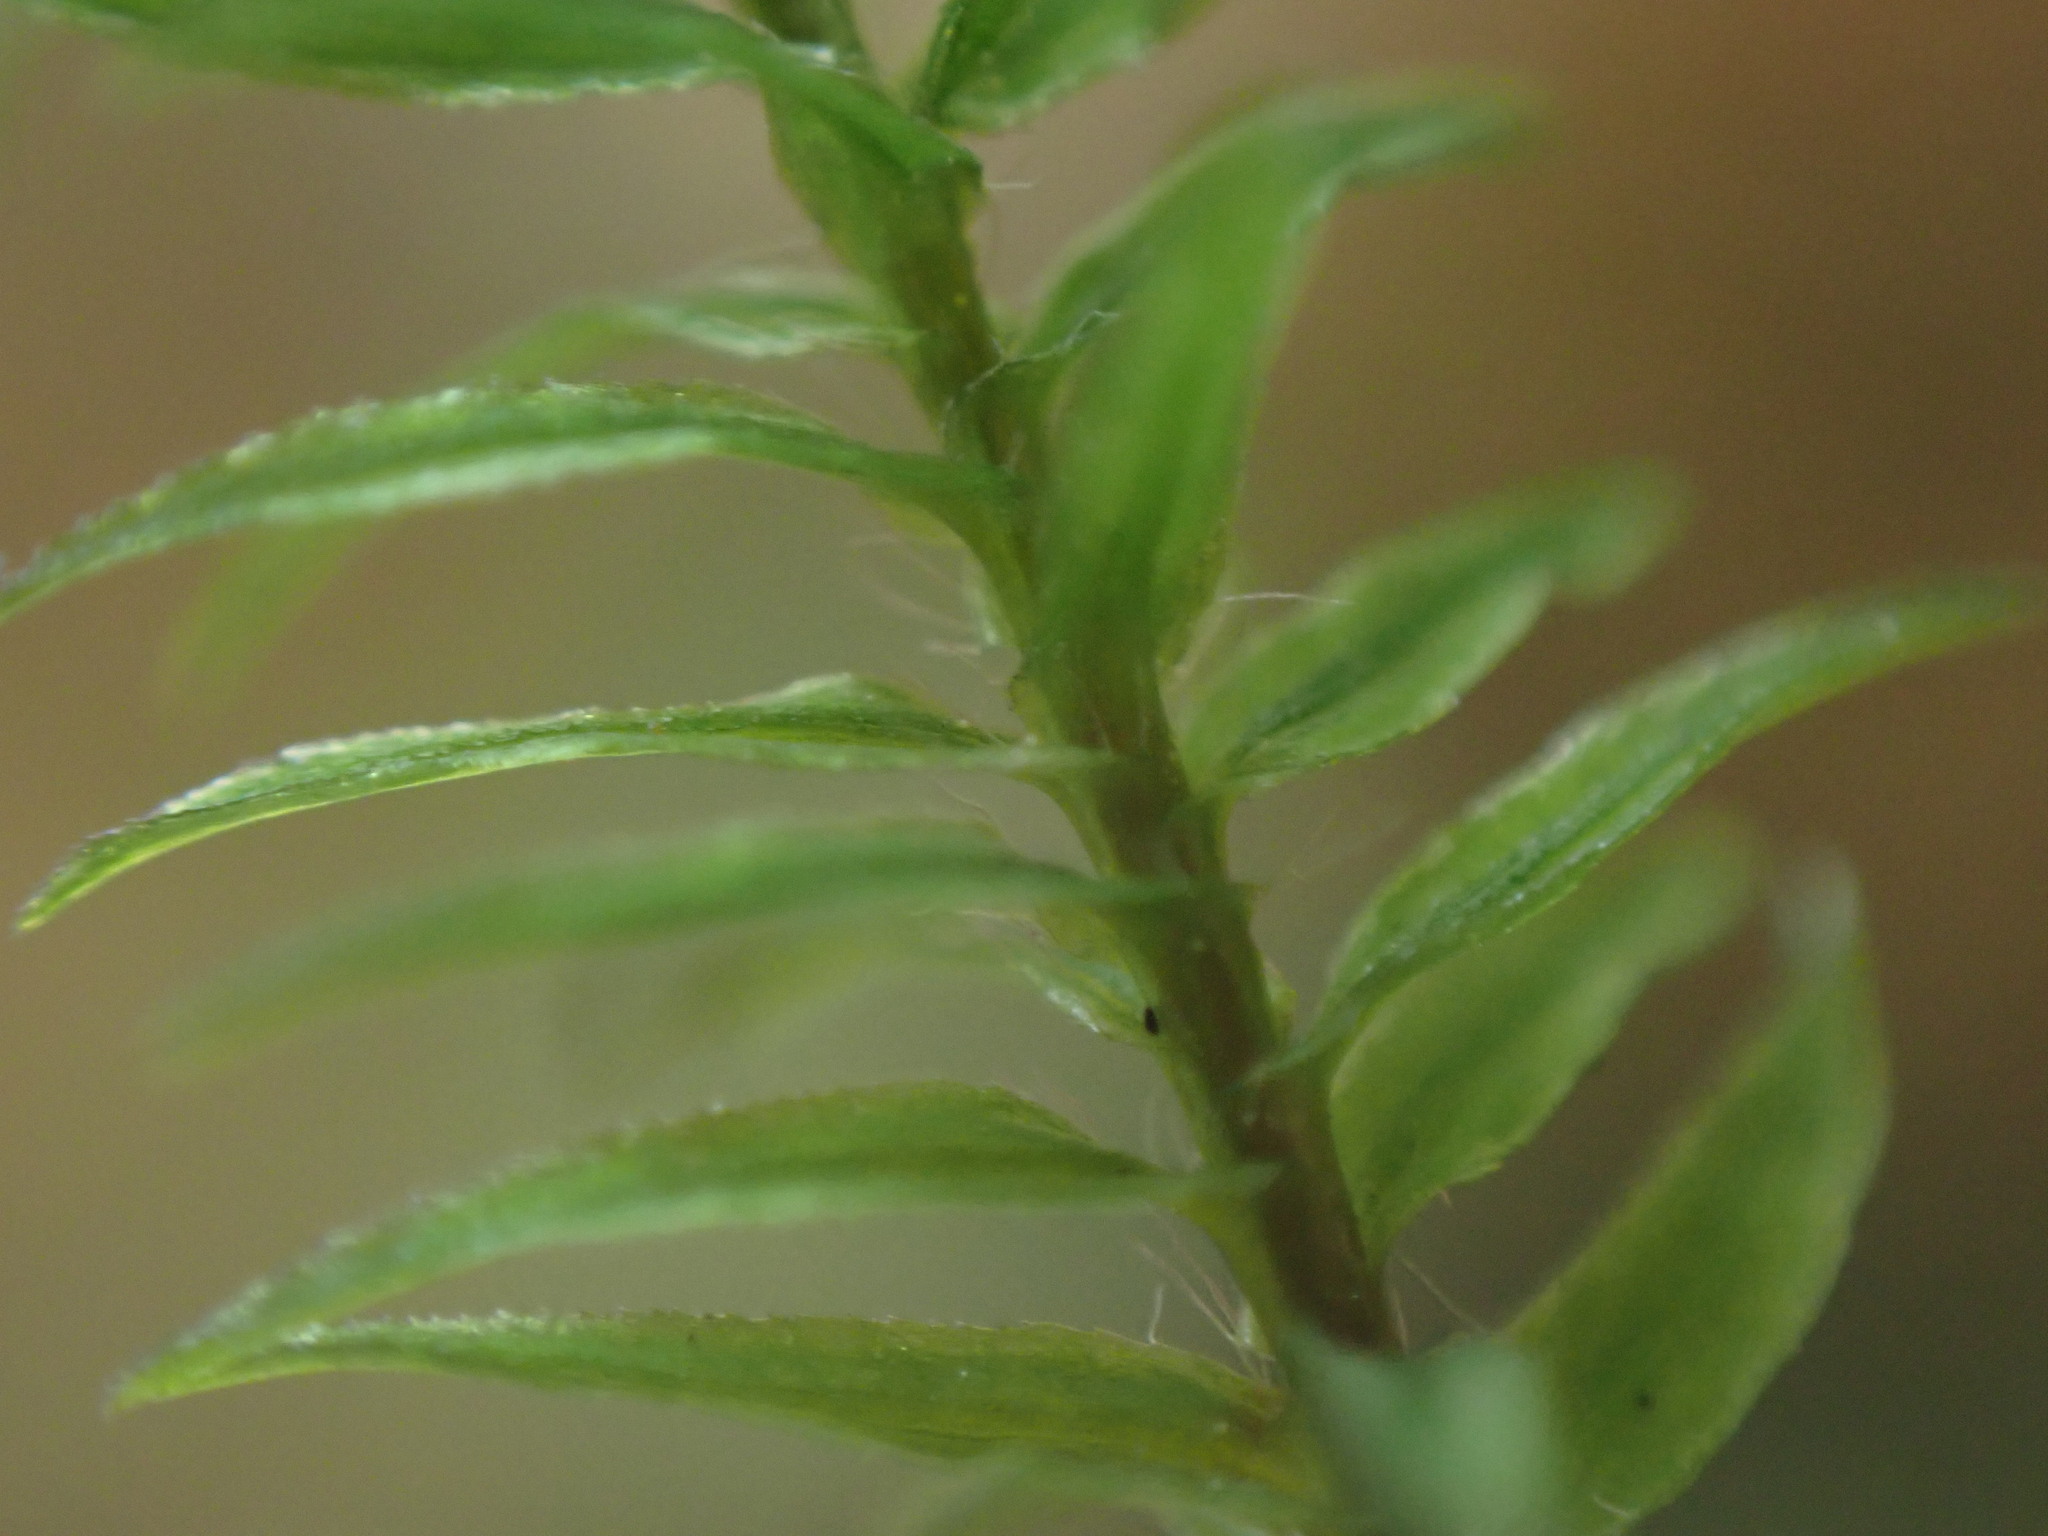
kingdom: Plantae
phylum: Bryophyta
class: Polytrichopsida
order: Polytrichales
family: Polytrichaceae
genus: Bartramiopsis
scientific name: Bartramiopsis lescurii
